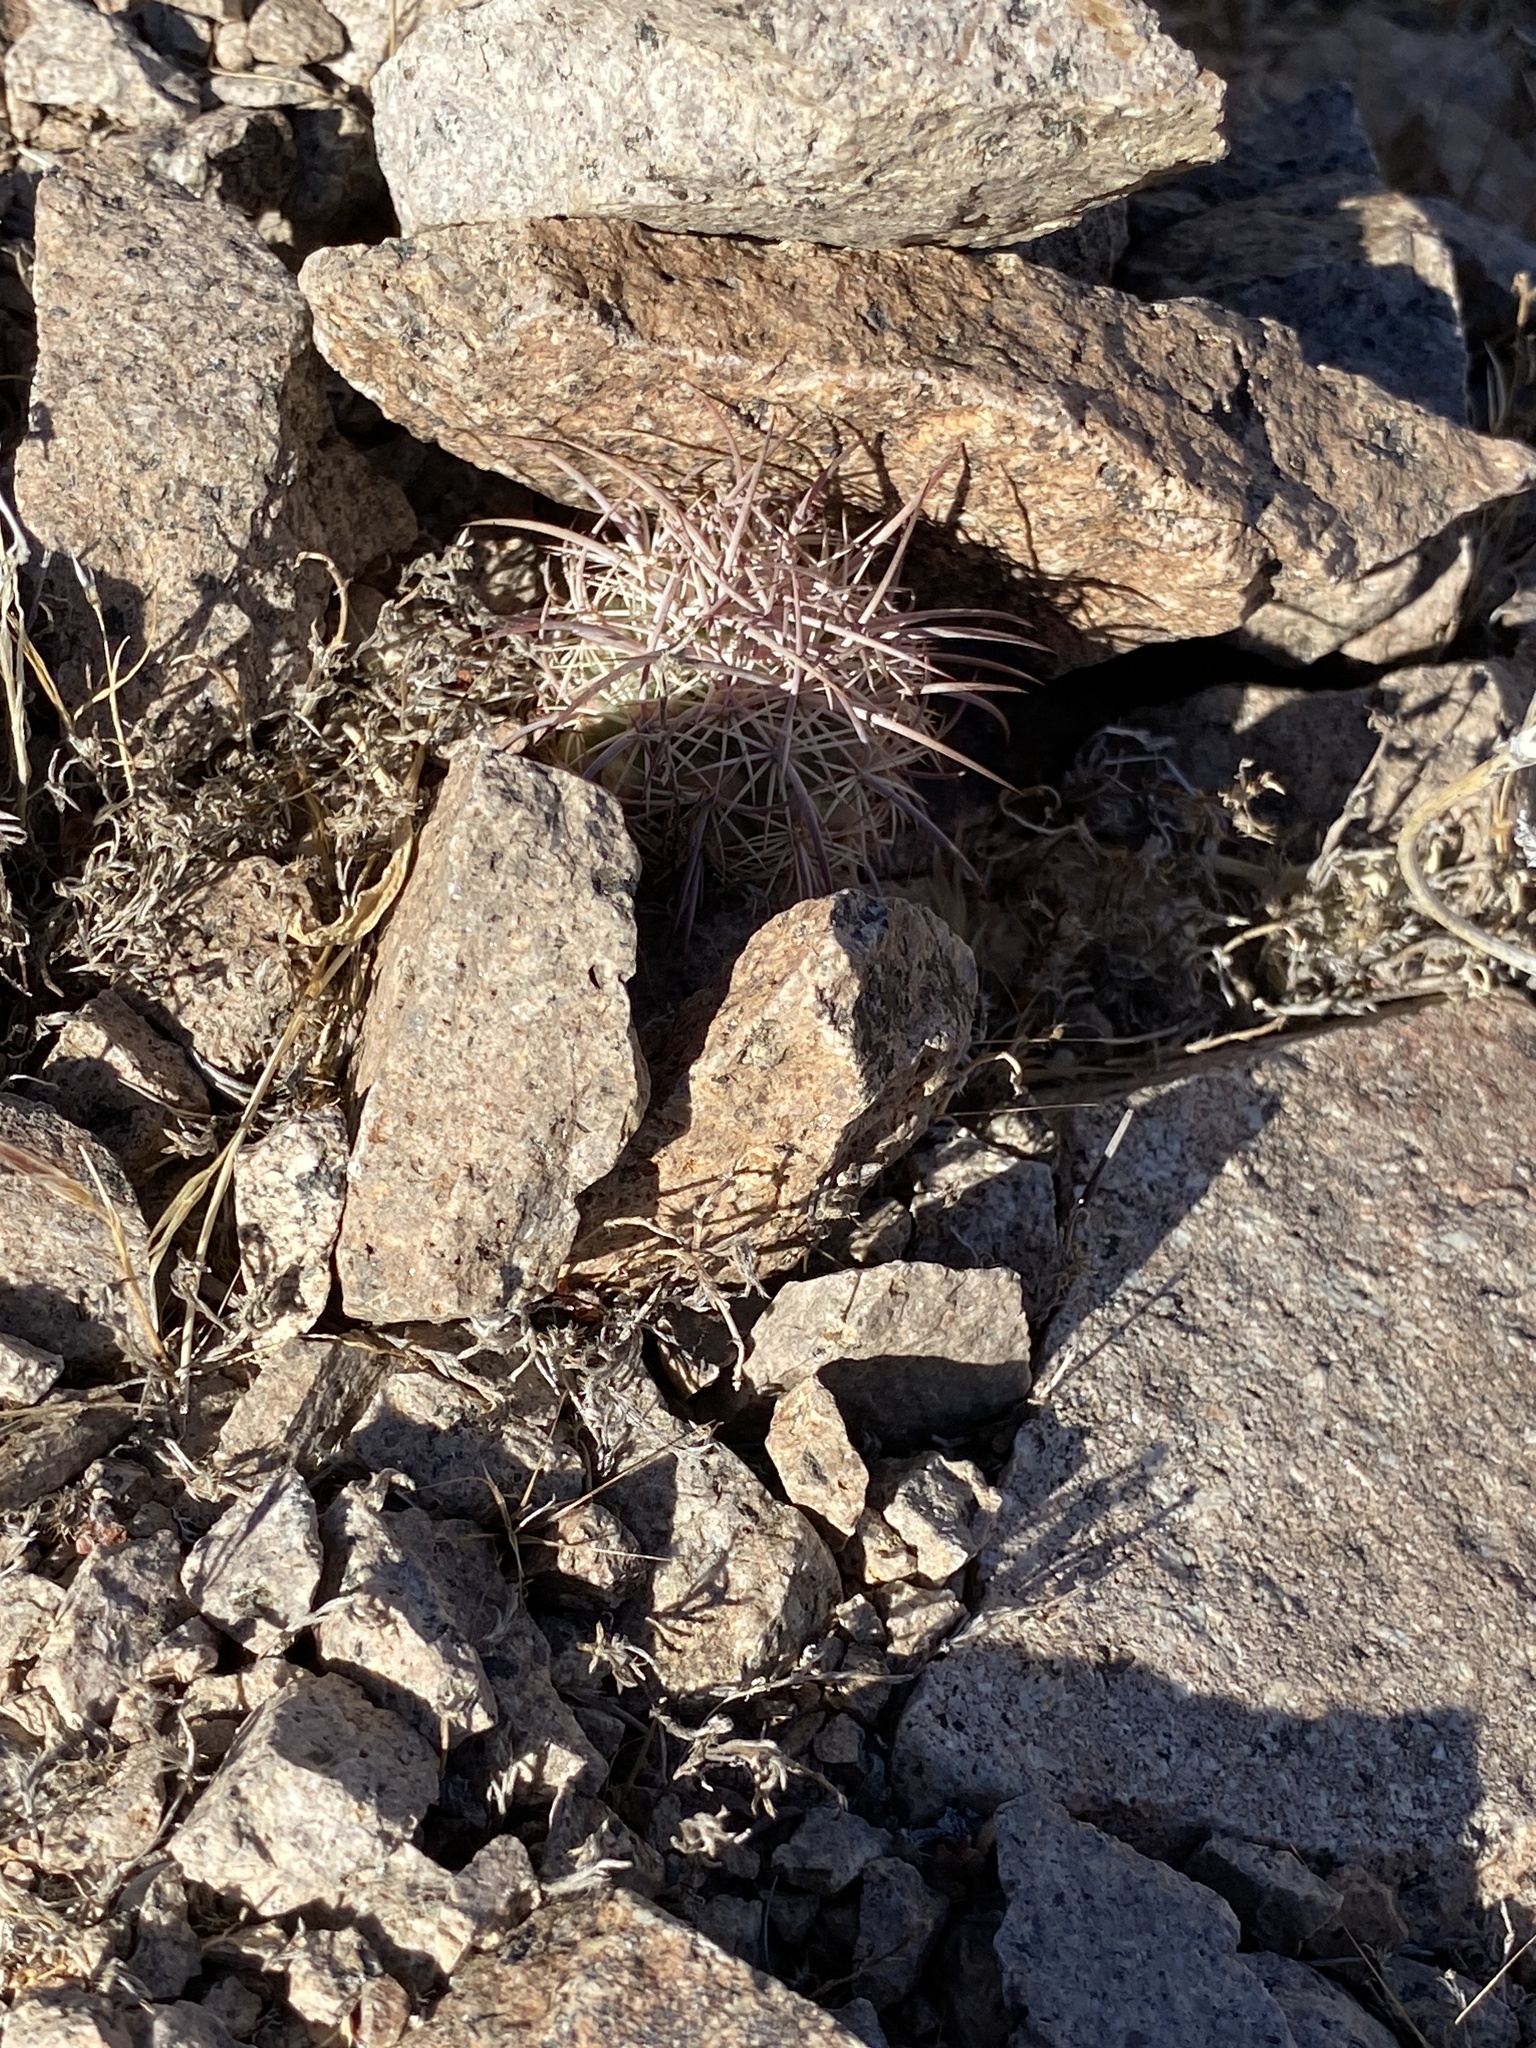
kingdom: Plantae
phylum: Tracheophyta
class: Magnoliopsida
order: Caryophyllales
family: Cactaceae
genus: Sclerocactus
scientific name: Sclerocactus johnsonii
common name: Eight-spine fishhook cactus
